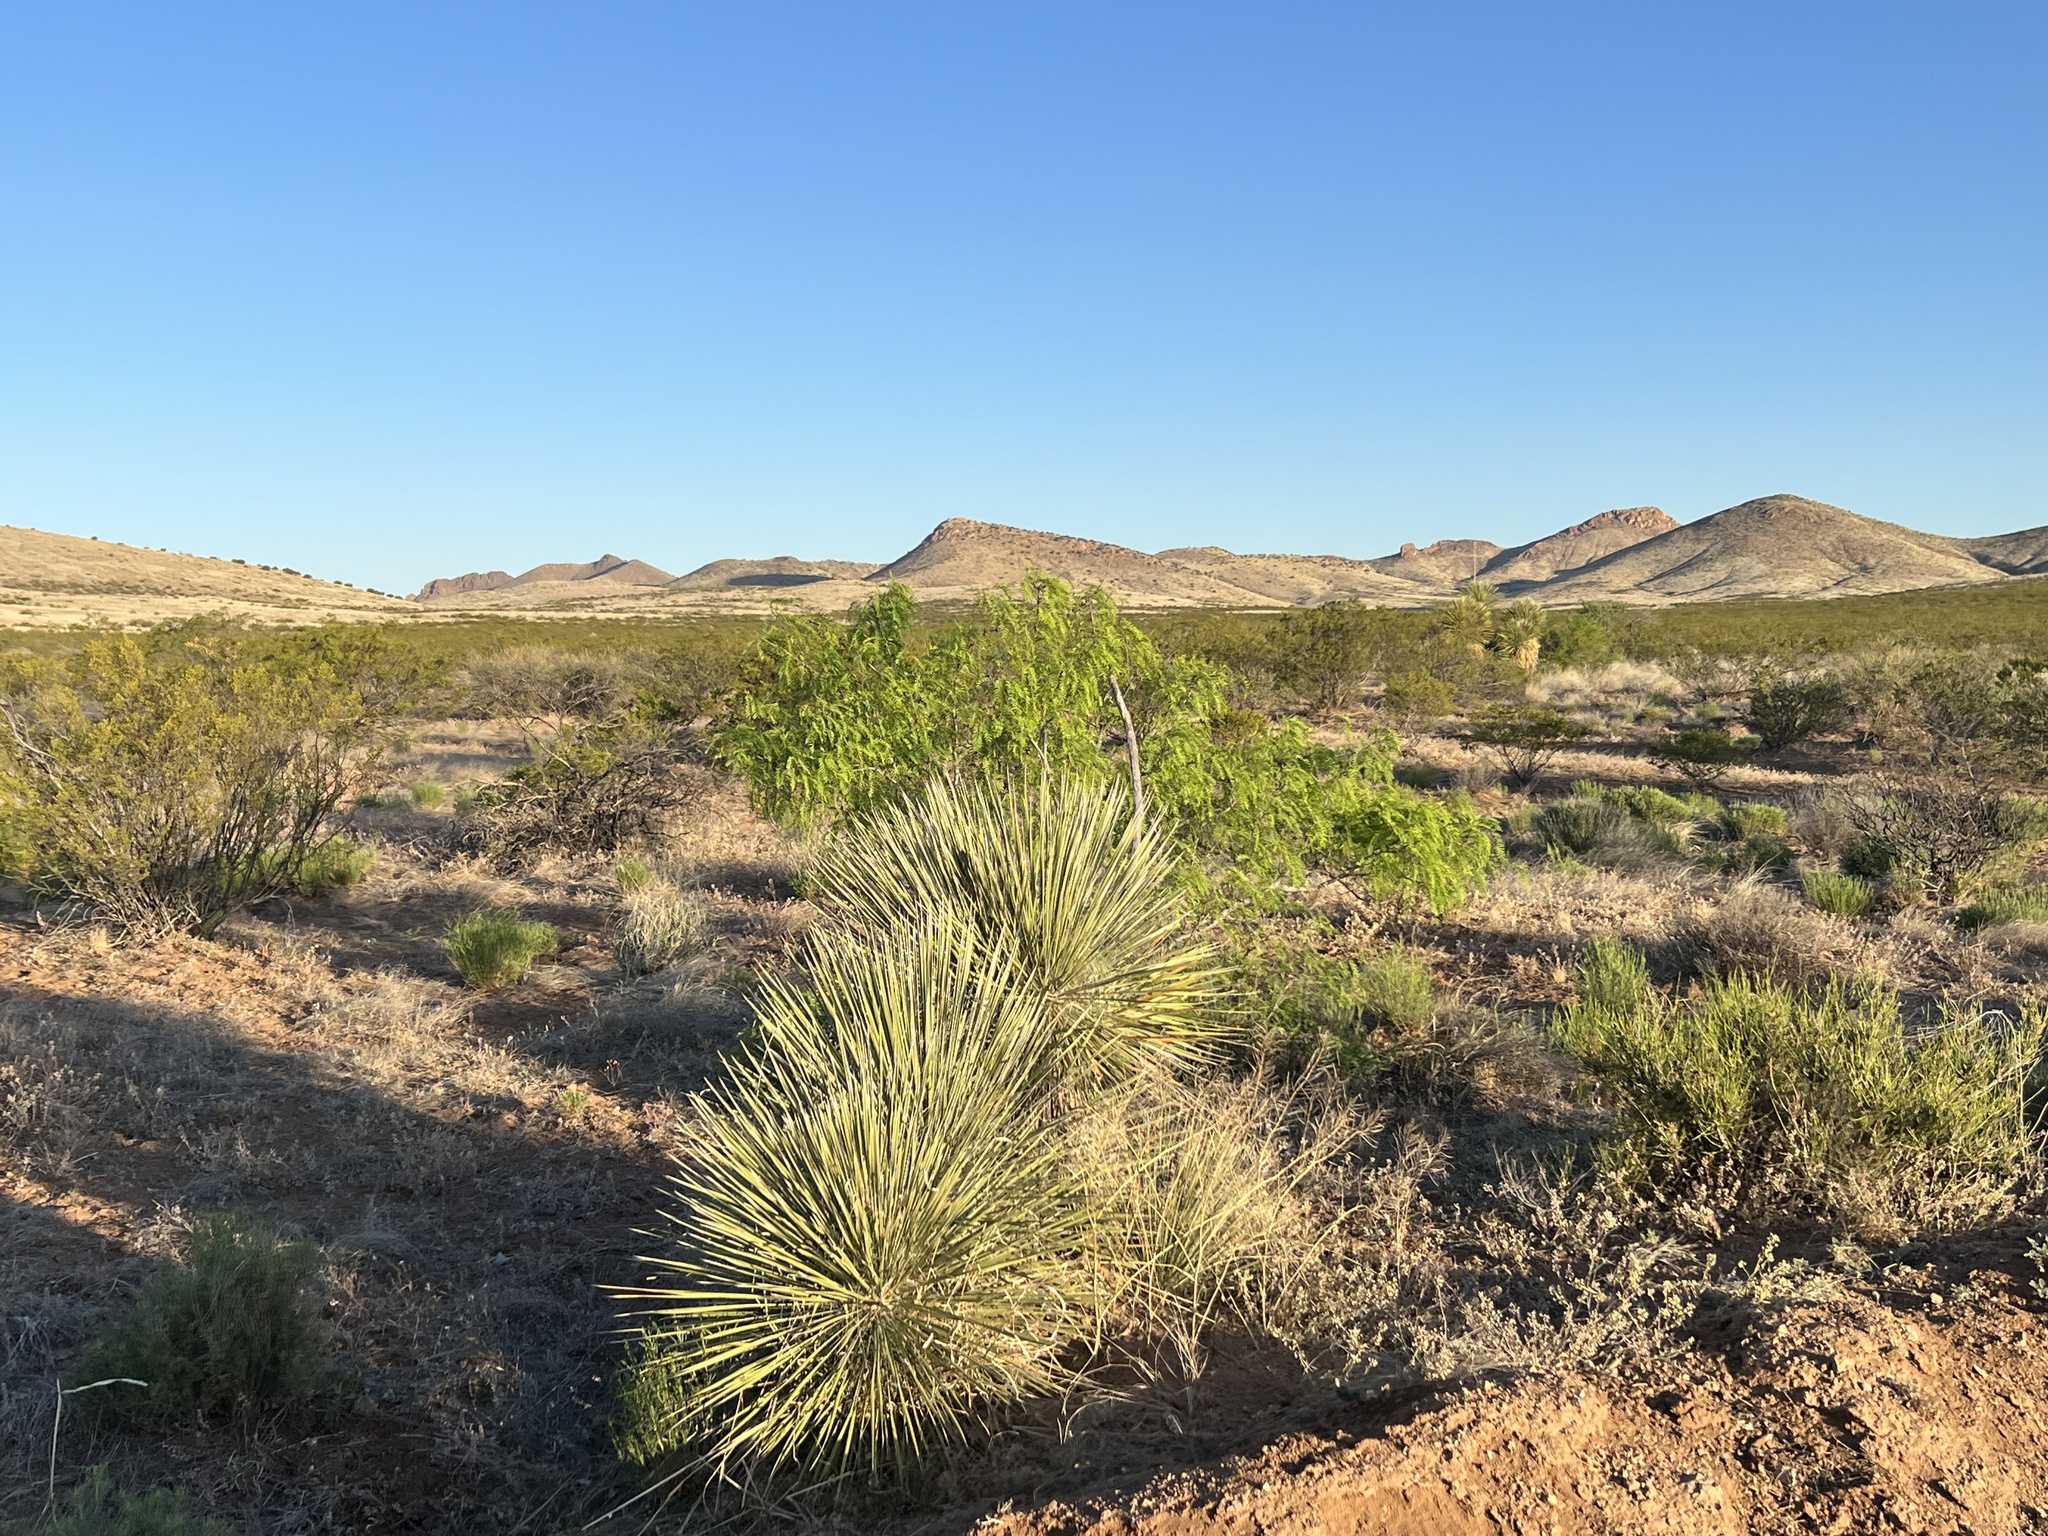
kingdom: Plantae
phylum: Tracheophyta
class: Liliopsida
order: Asparagales
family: Asparagaceae
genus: Yucca
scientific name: Yucca elata
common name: Palmella
